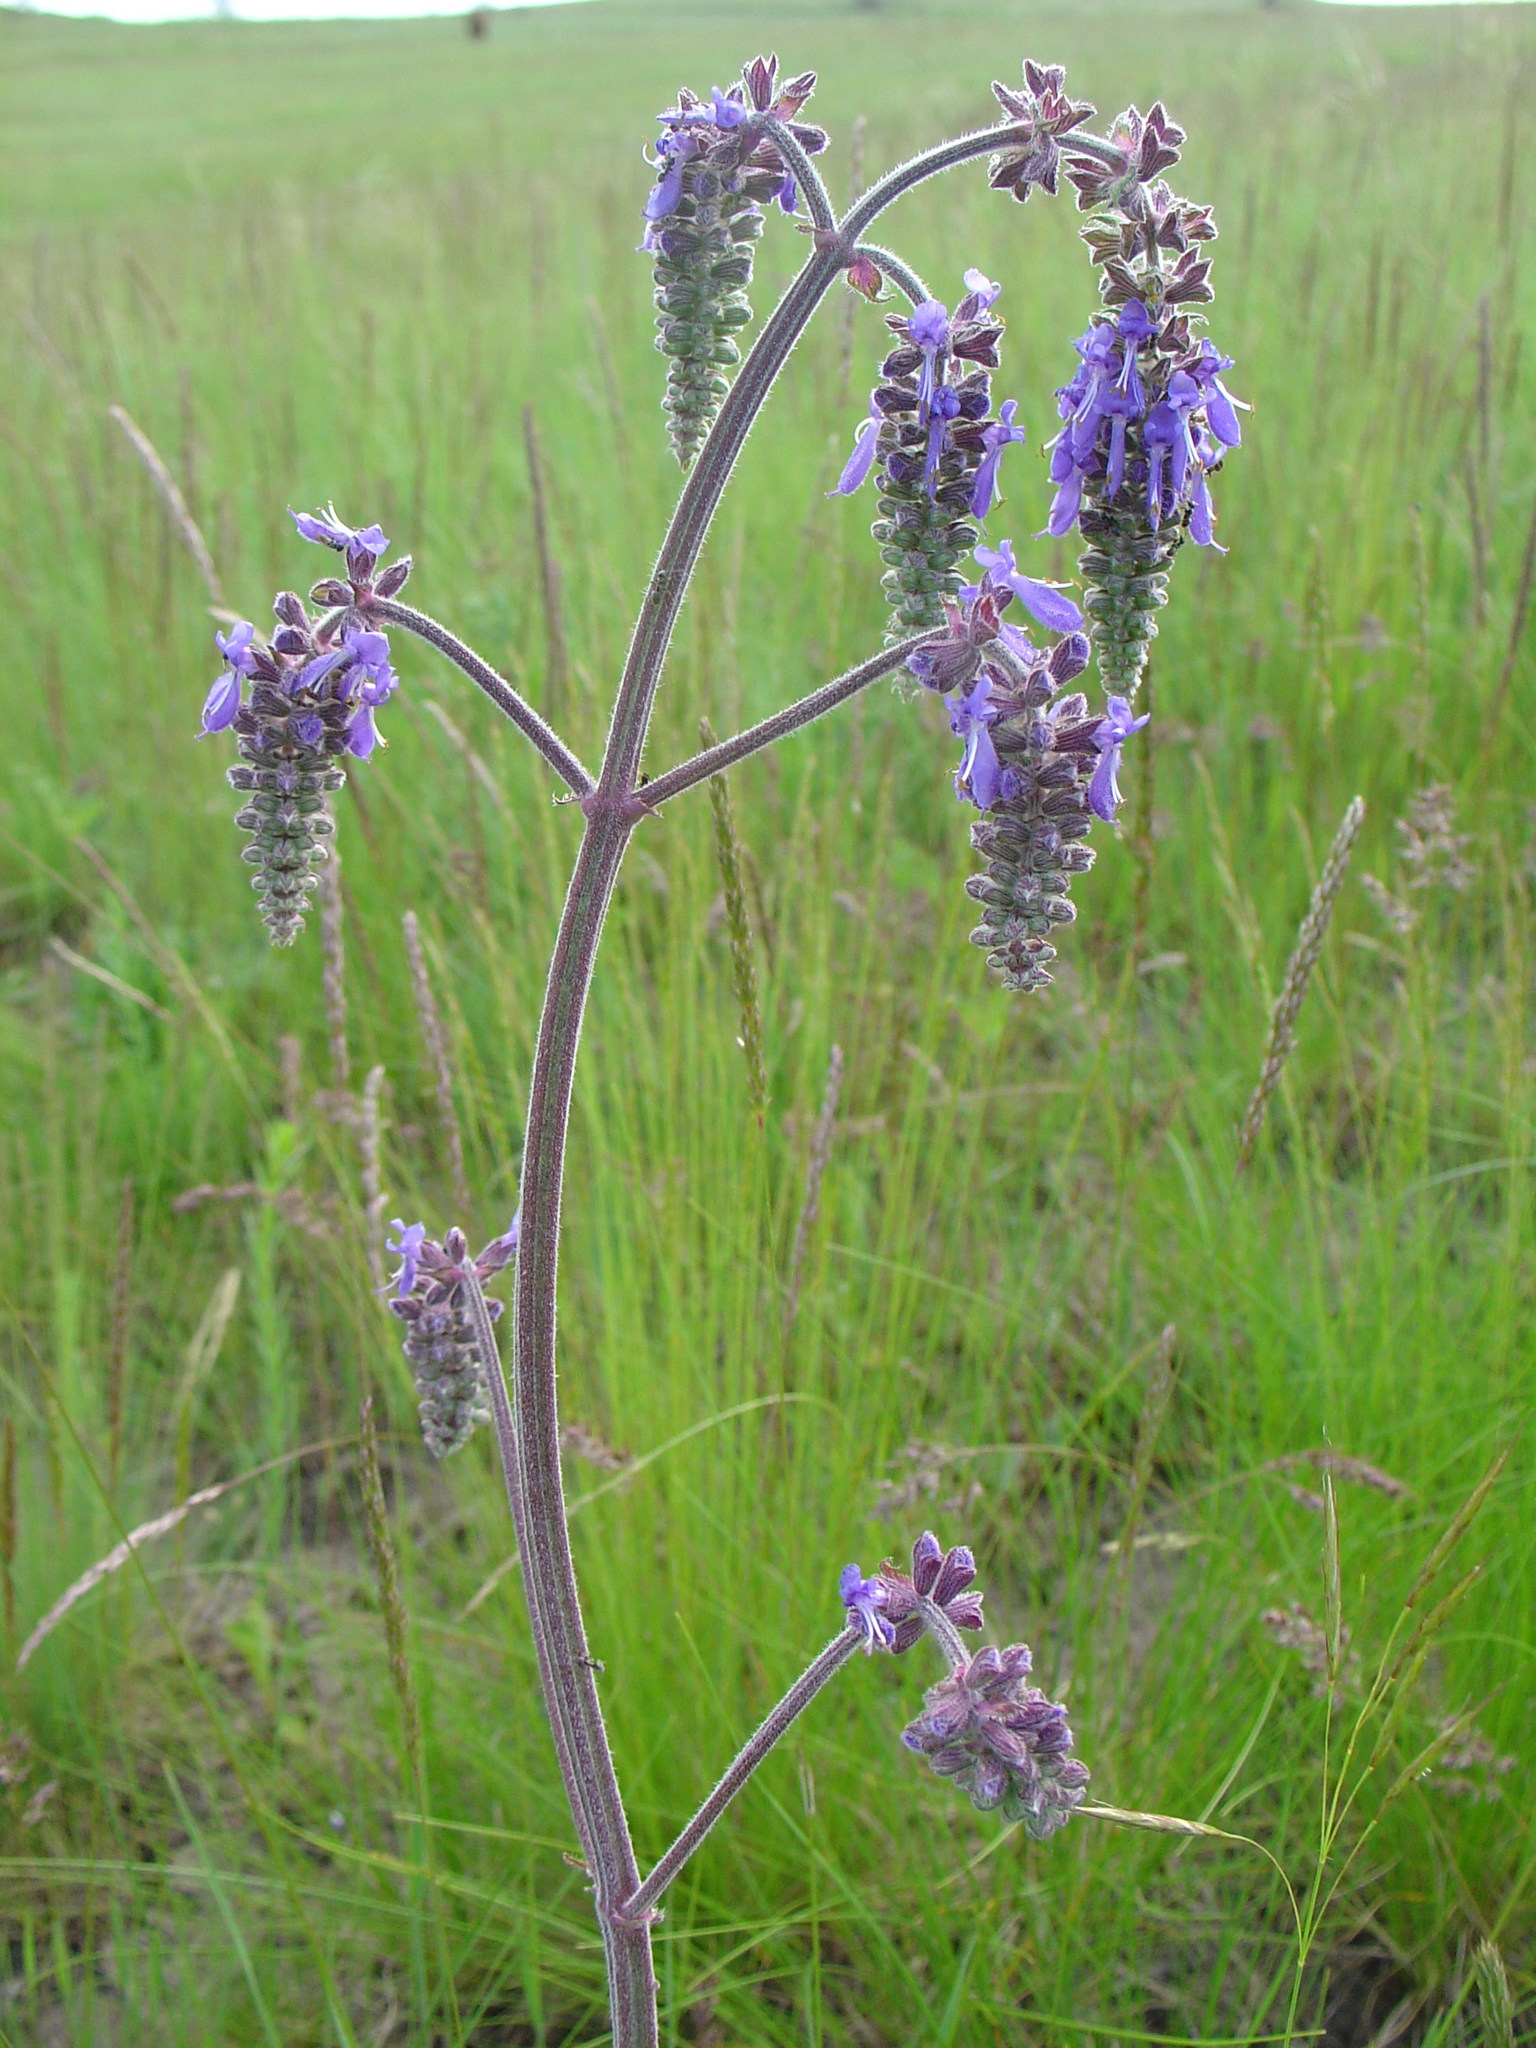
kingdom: Plantae
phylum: Tracheophyta
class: Magnoliopsida
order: Lamiales
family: Lamiaceae
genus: Salvia
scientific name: Salvia nutans
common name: Nodding sage
